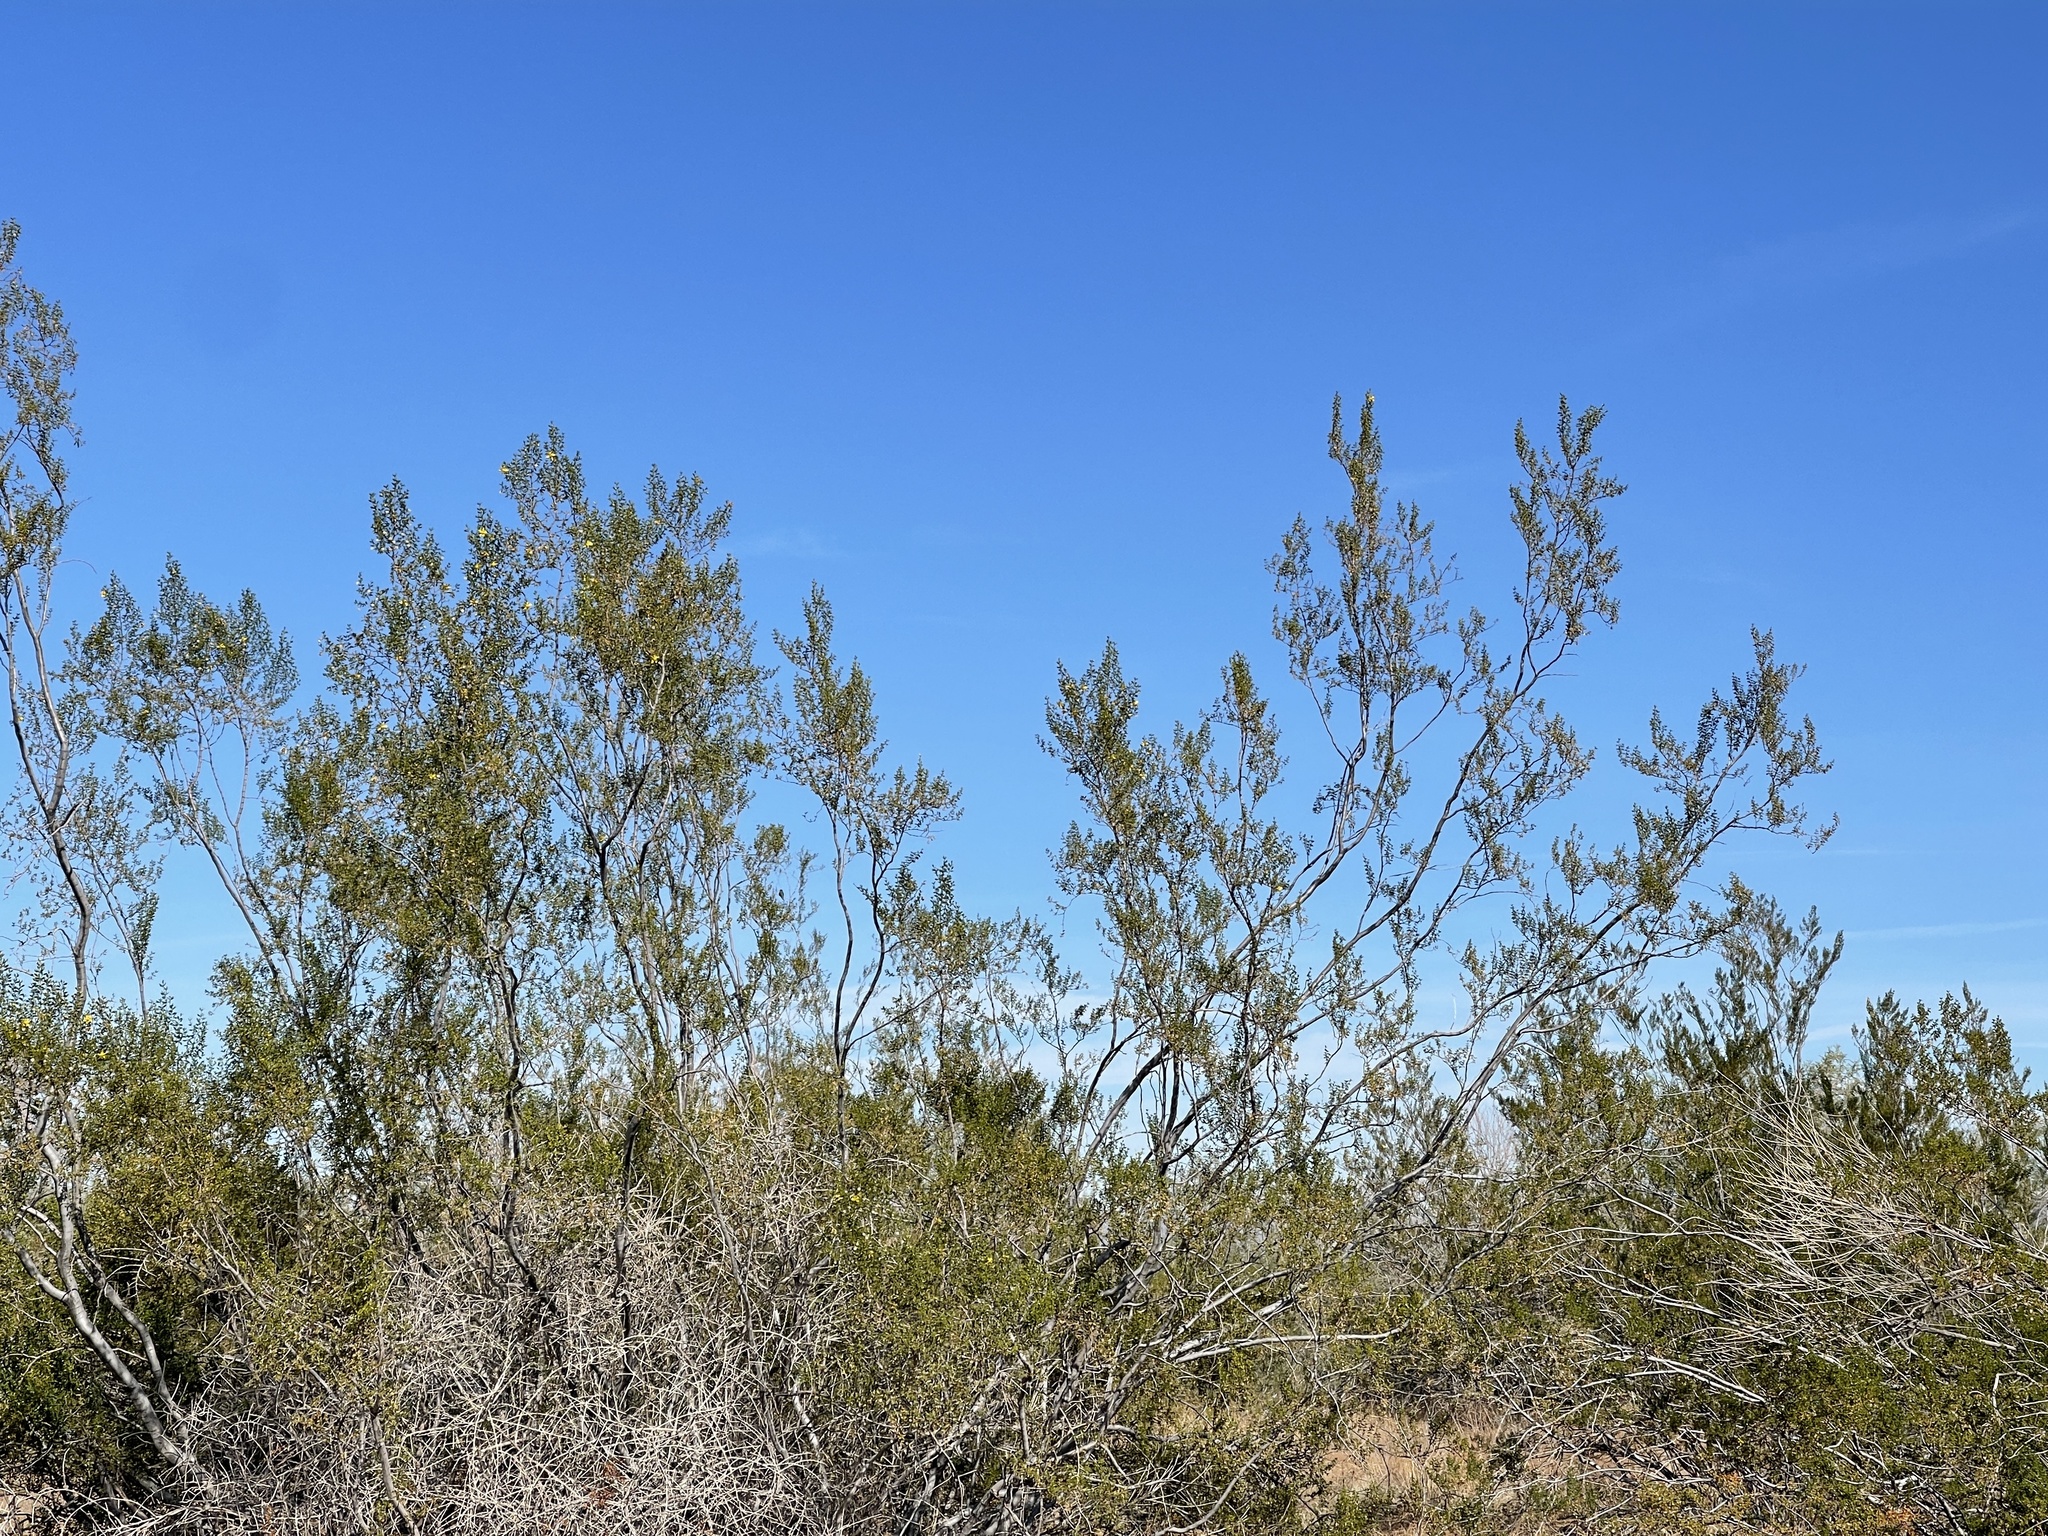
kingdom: Plantae
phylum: Tracheophyta
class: Magnoliopsida
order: Zygophyllales
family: Zygophyllaceae
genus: Larrea
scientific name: Larrea tridentata
